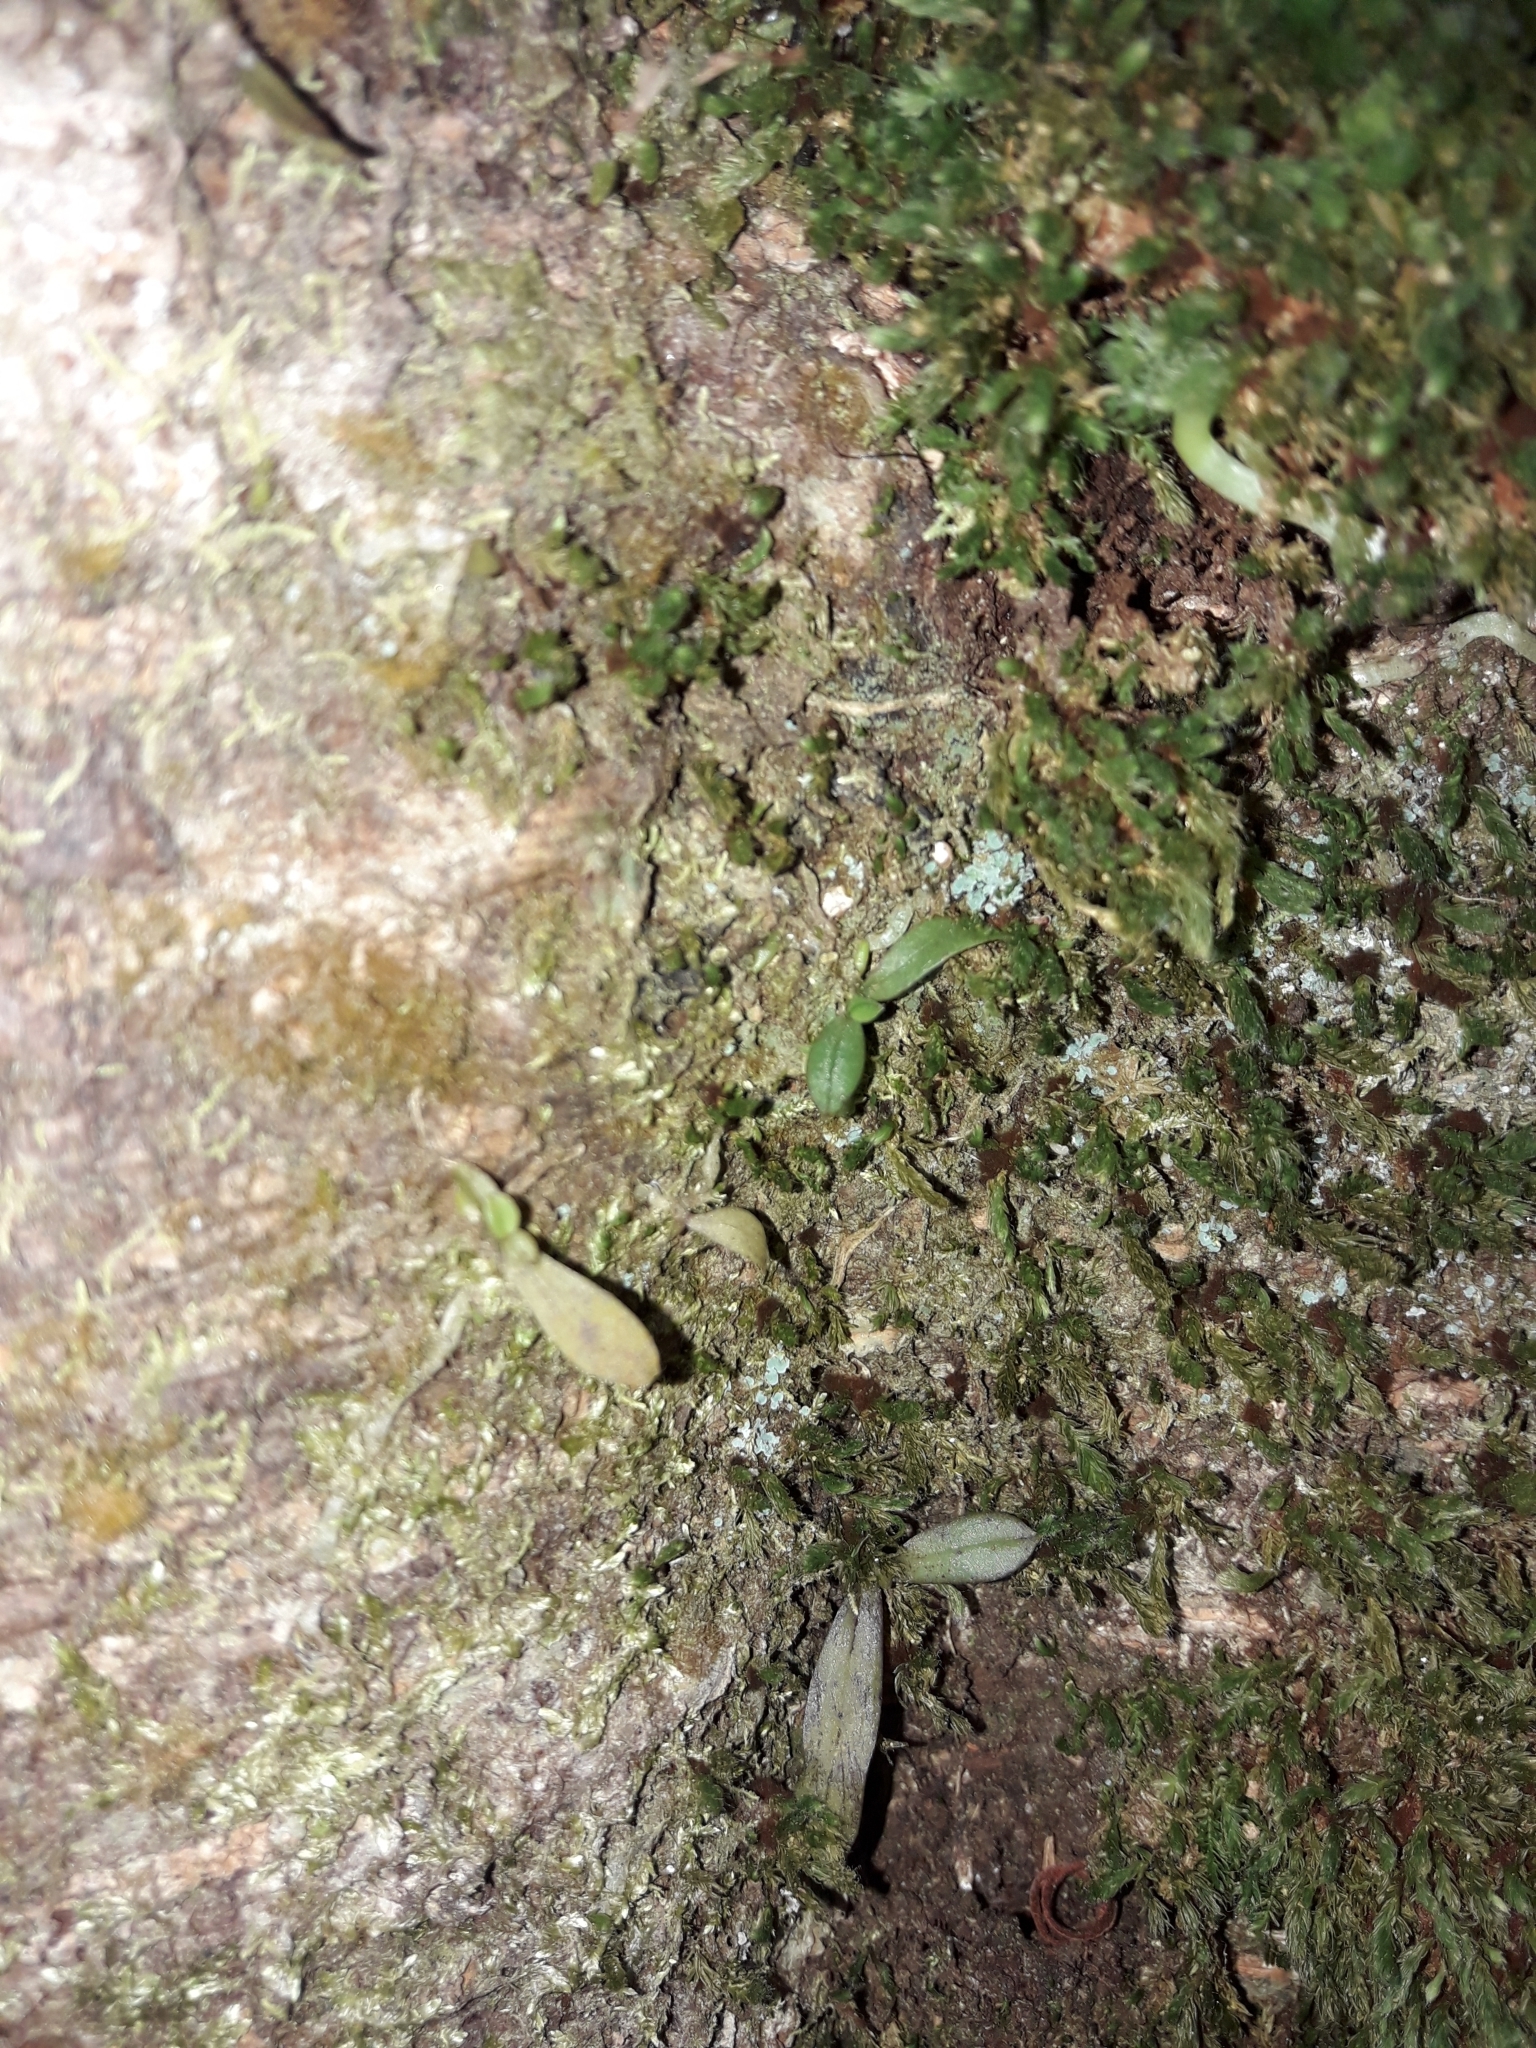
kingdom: Plantae
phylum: Tracheophyta
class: Liliopsida
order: Asparagales
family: Orchidaceae
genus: Drymoanthus
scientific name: Drymoanthus adversus
